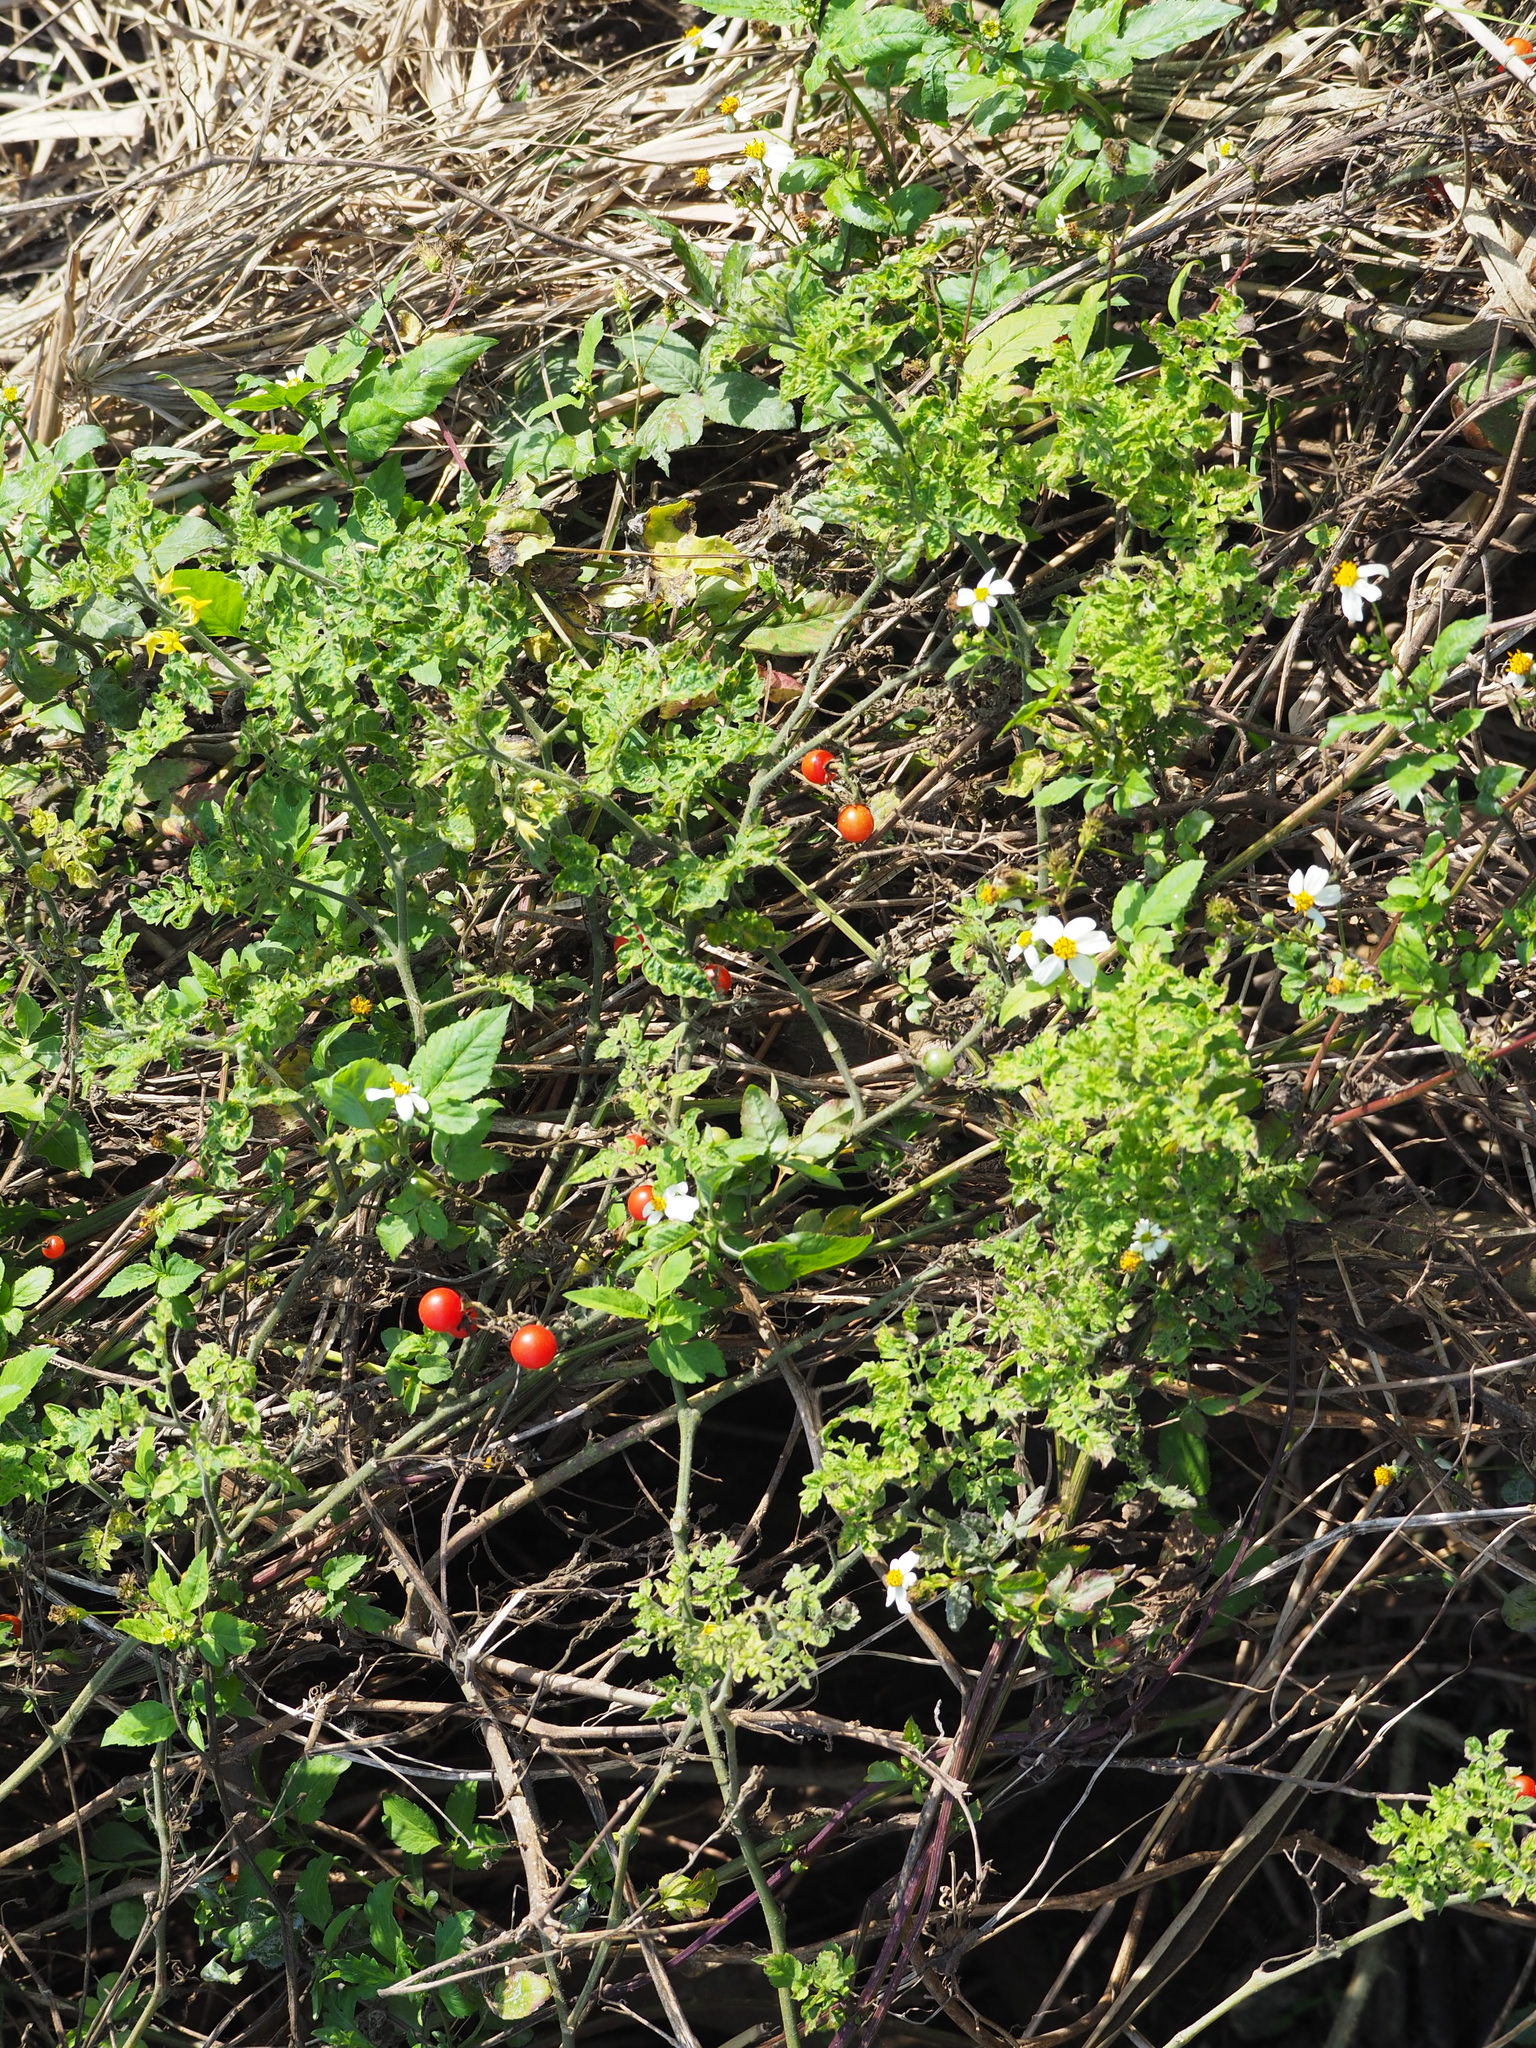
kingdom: Plantae
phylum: Tracheophyta
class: Magnoliopsida
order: Solanales
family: Solanaceae
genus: Solanum
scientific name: Solanum lycopersicum
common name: Garden tomato
